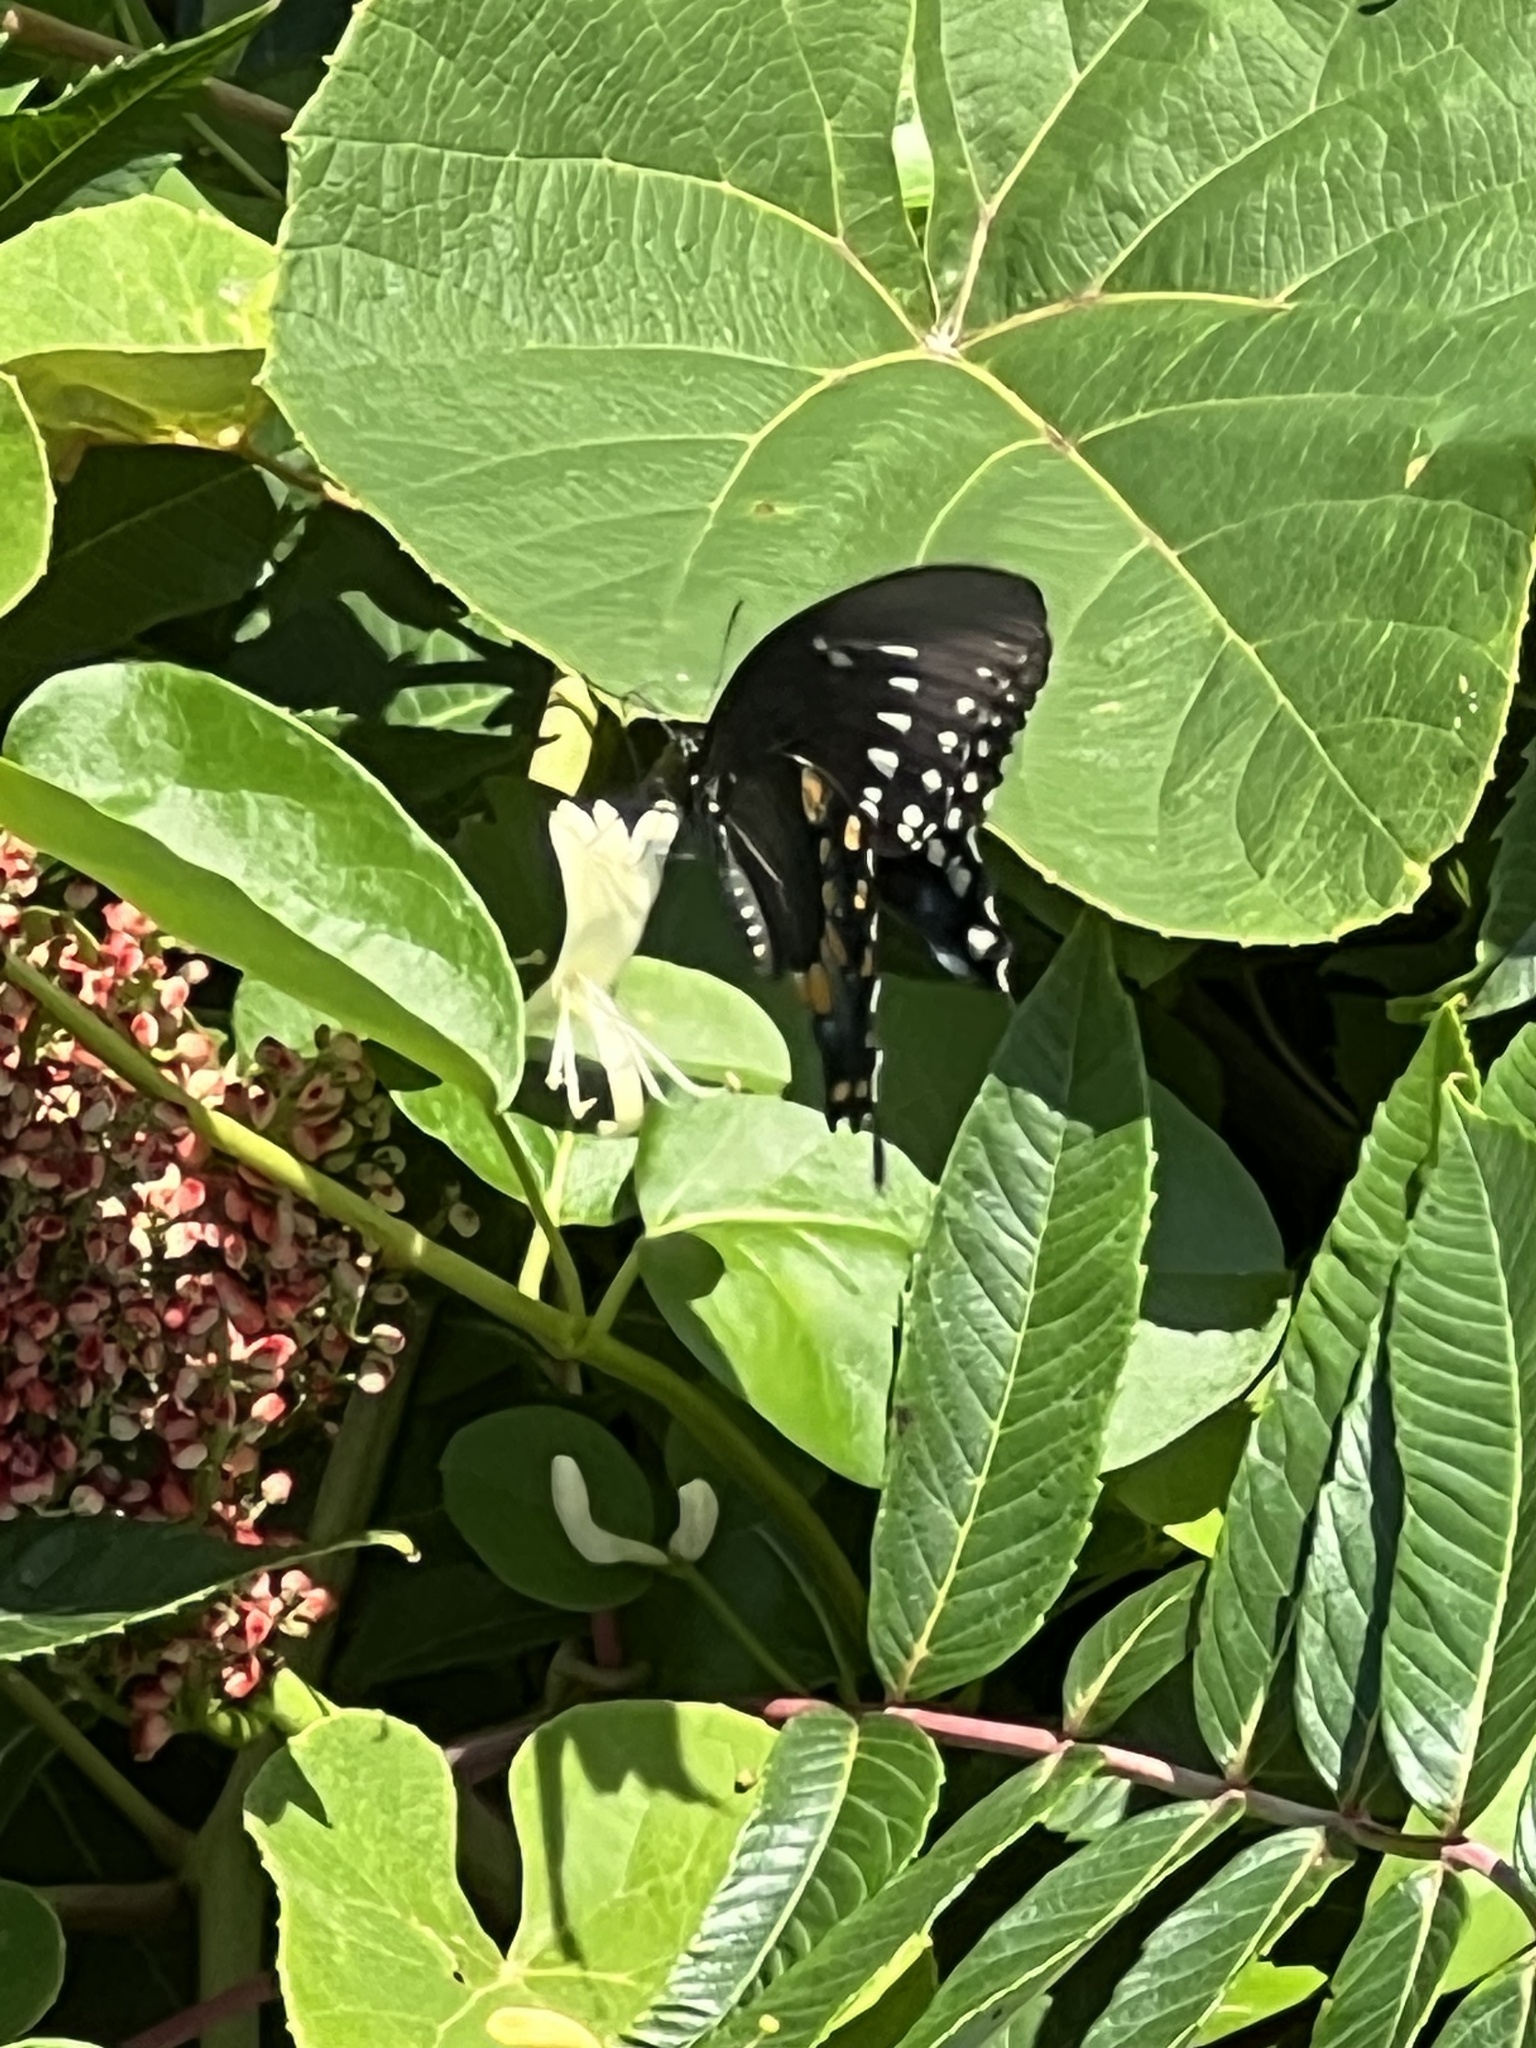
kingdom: Animalia
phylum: Arthropoda
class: Insecta
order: Lepidoptera
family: Papilionidae
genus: Papilio
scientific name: Papilio troilus
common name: Spicebush swallowtail
